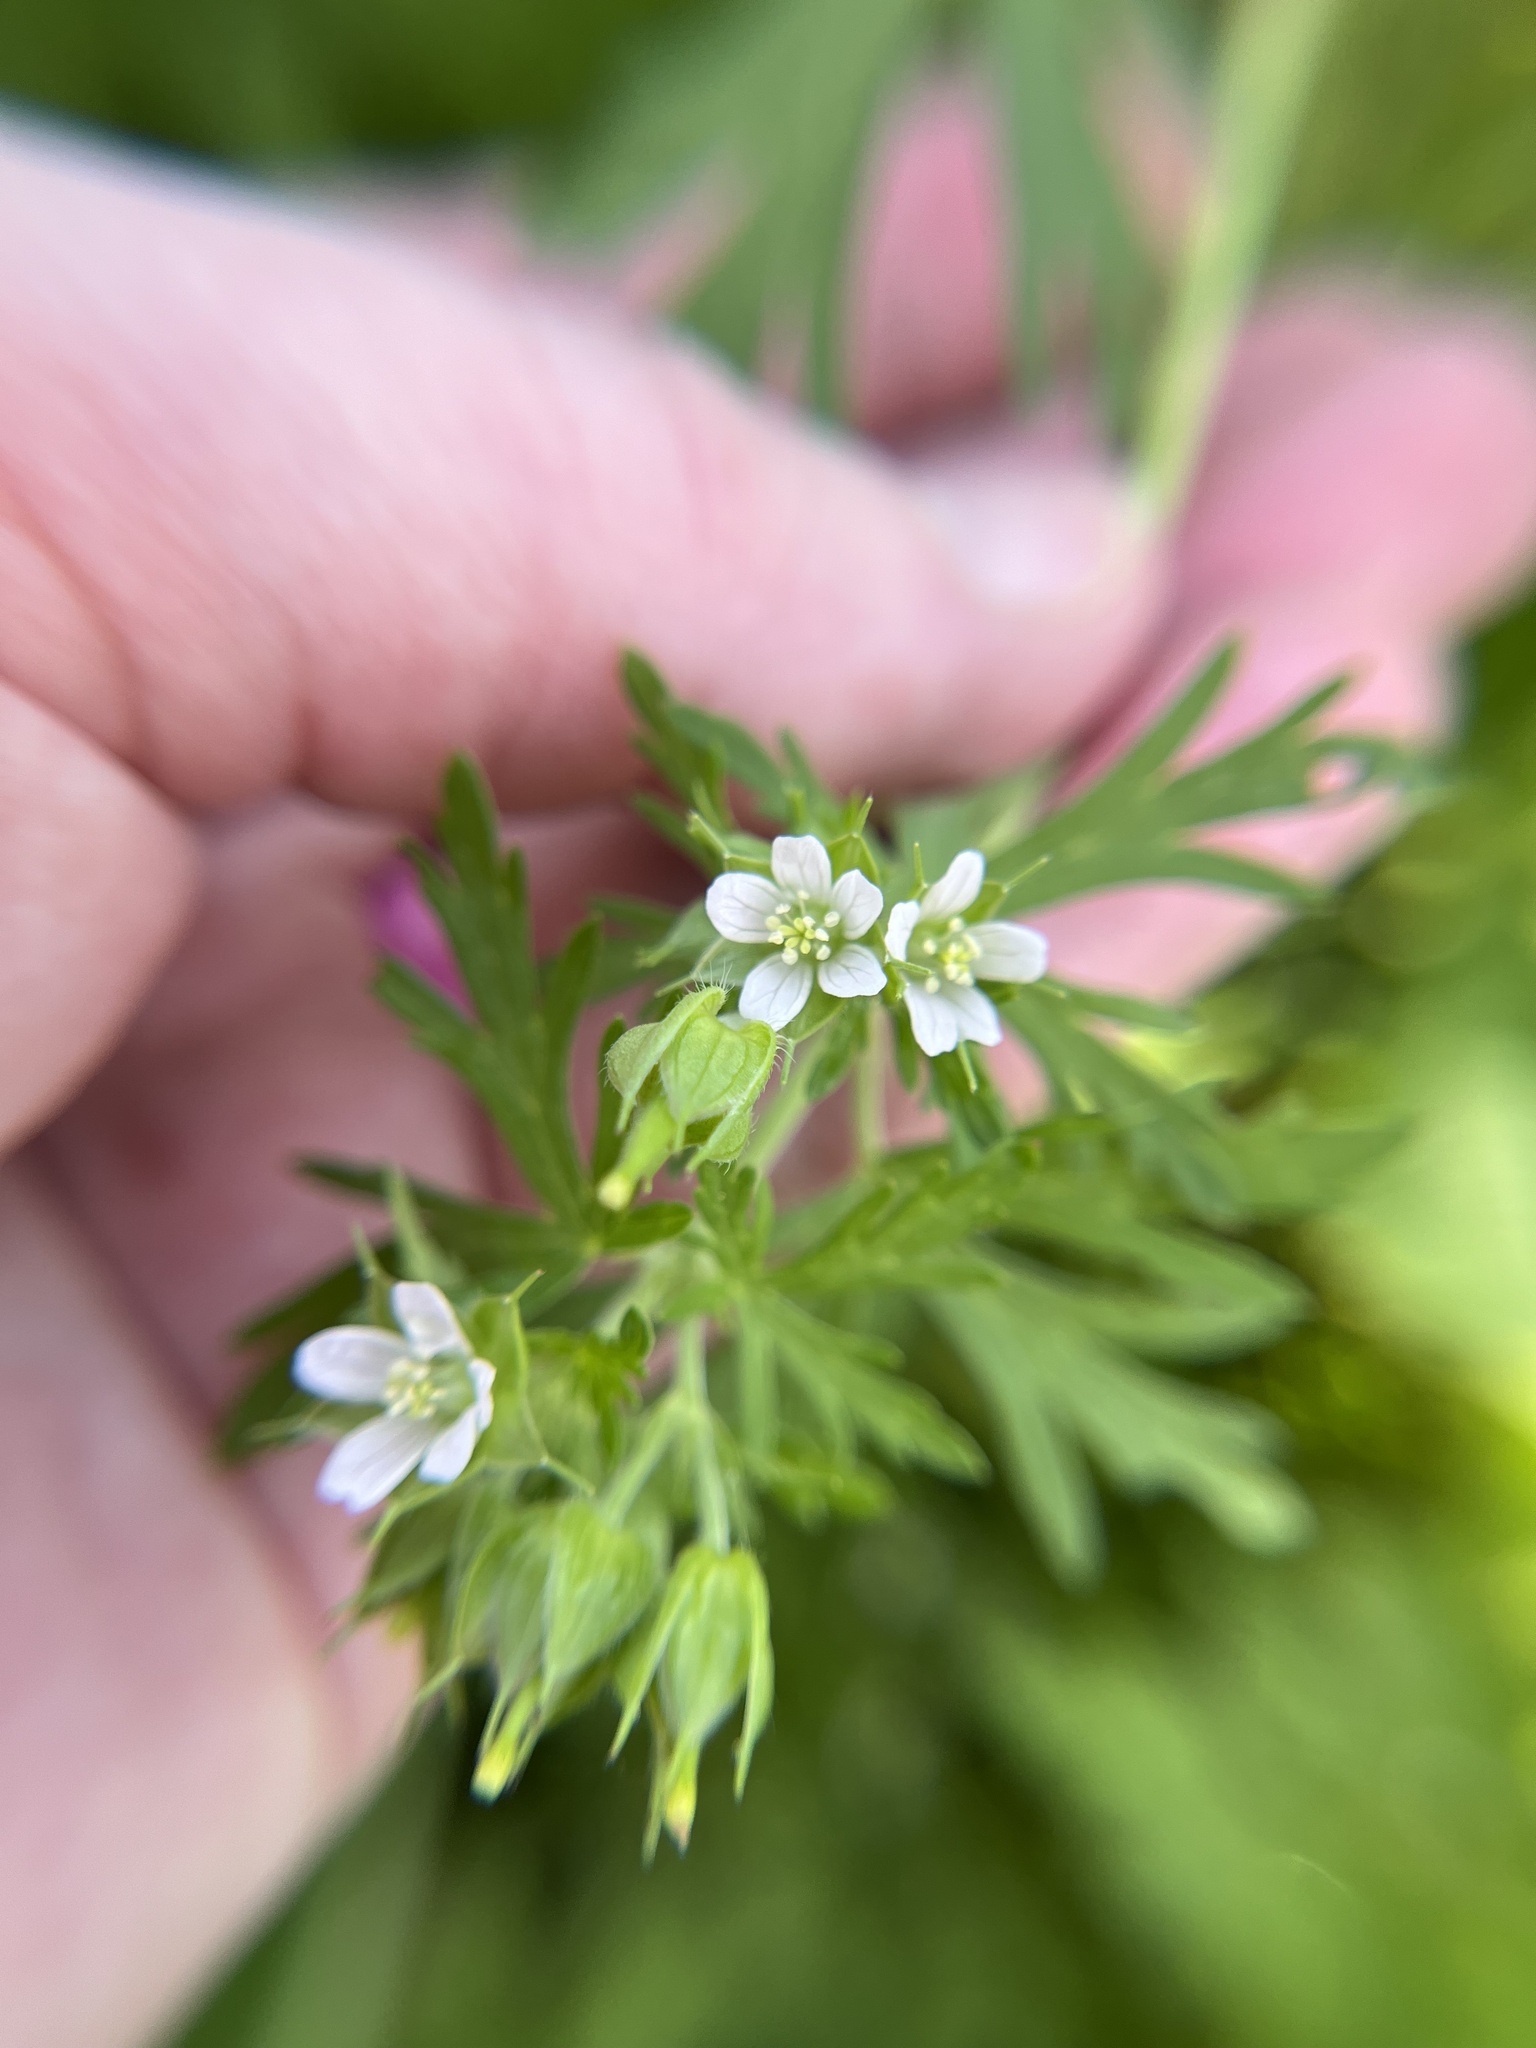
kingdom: Plantae
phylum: Tracheophyta
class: Magnoliopsida
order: Geraniales
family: Geraniaceae
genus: Geranium
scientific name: Geranium carolinianum
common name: Carolina crane's-bill
